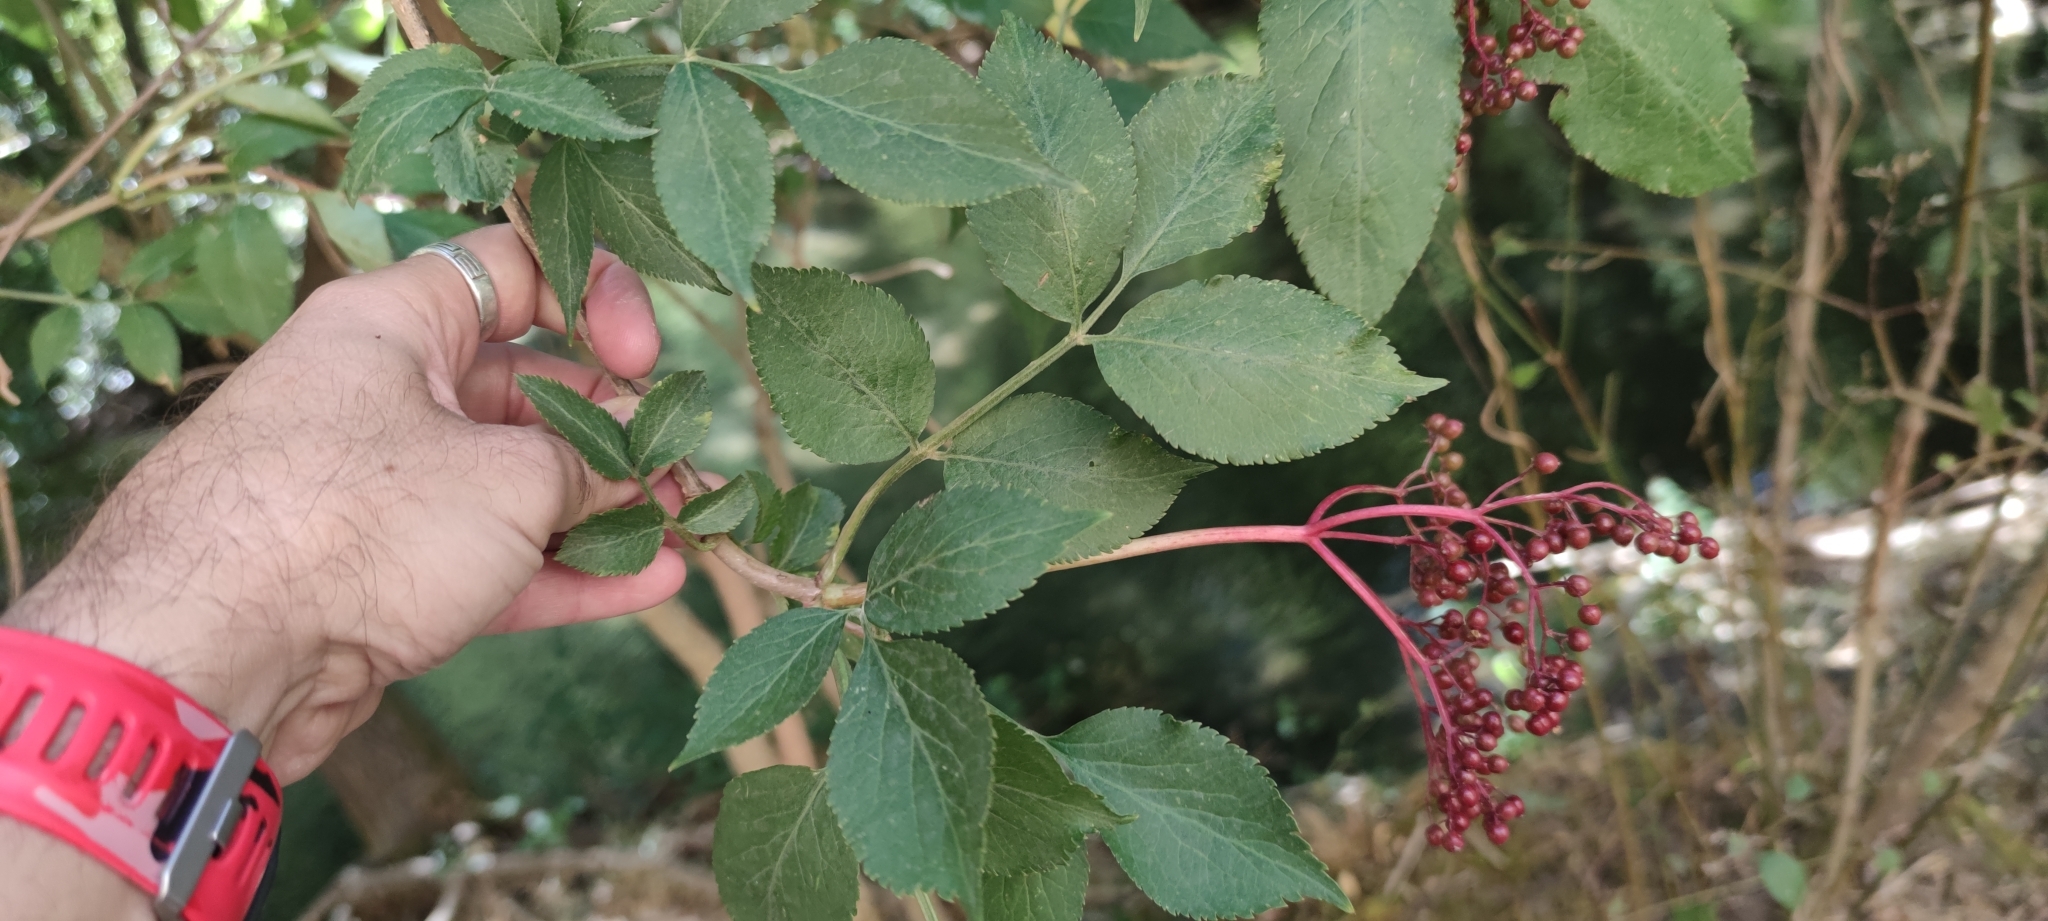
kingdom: Plantae
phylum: Tracheophyta
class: Magnoliopsida
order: Dipsacales
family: Viburnaceae
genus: Sambucus
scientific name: Sambucus nigra
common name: Elder
